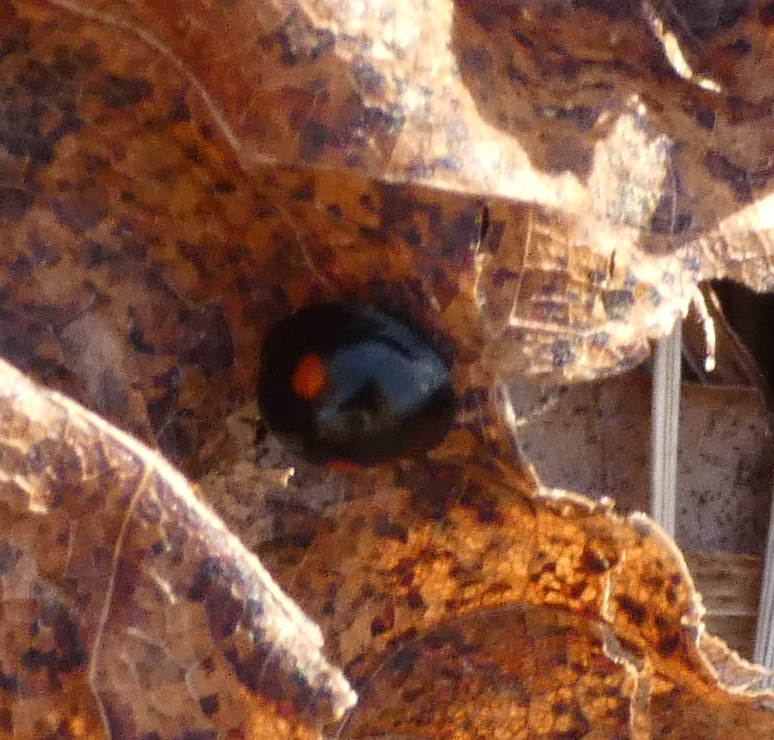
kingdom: Animalia
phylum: Arthropoda
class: Insecta
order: Coleoptera
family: Coccinellidae
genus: Chilocorus
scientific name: Chilocorus stigma
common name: Twicestabbed lady beetle
